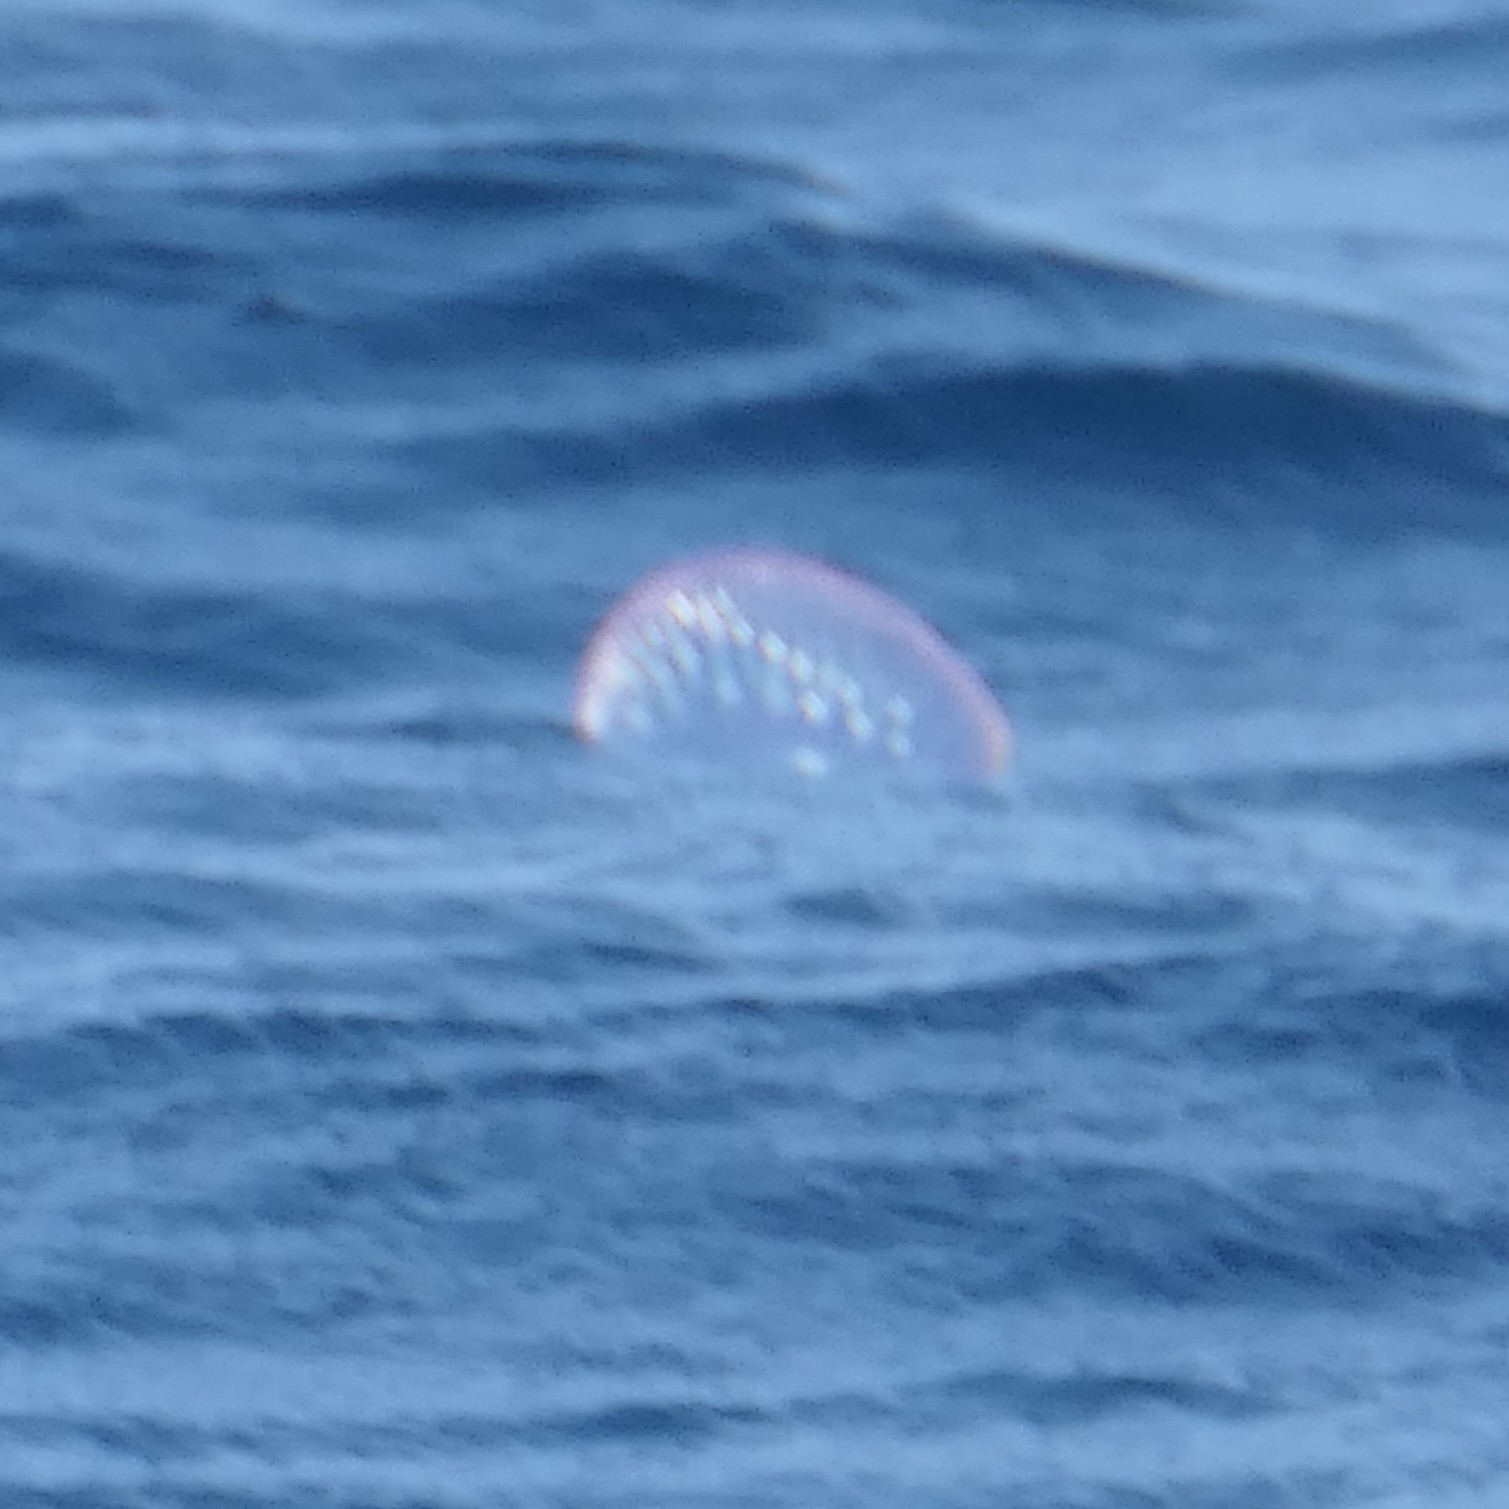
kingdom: Animalia
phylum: Cnidaria
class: Hydrozoa
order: Siphonophorae
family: Physaliidae
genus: Physalia
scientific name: Physalia physalis
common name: Portuguese man-of-war
